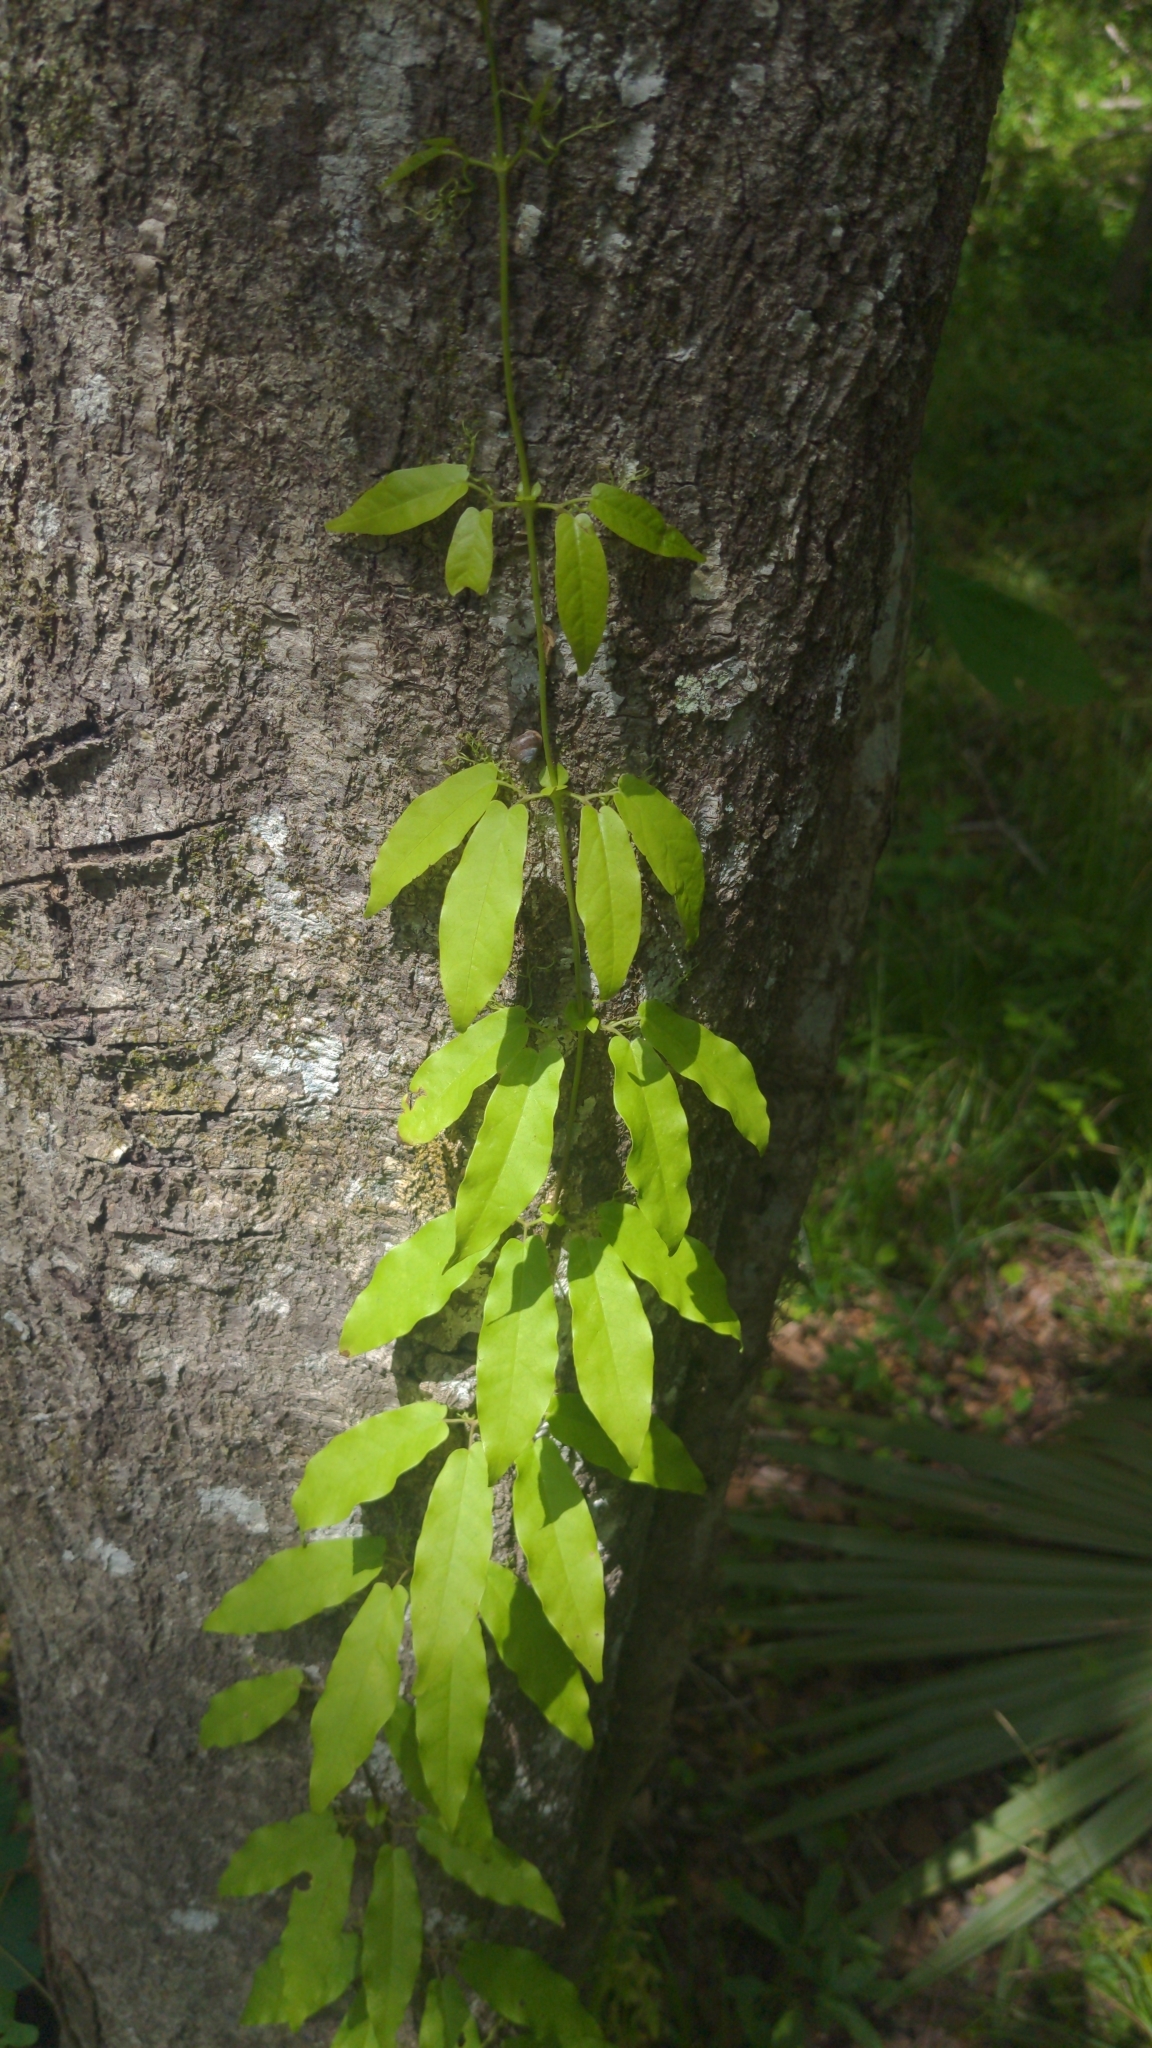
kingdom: Plantae
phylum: Tracheophyta
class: Magnoliopsida
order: Lamiales
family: Bignoniaceae
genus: Bignonia
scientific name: Bignonia capreolata
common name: Crossvine
